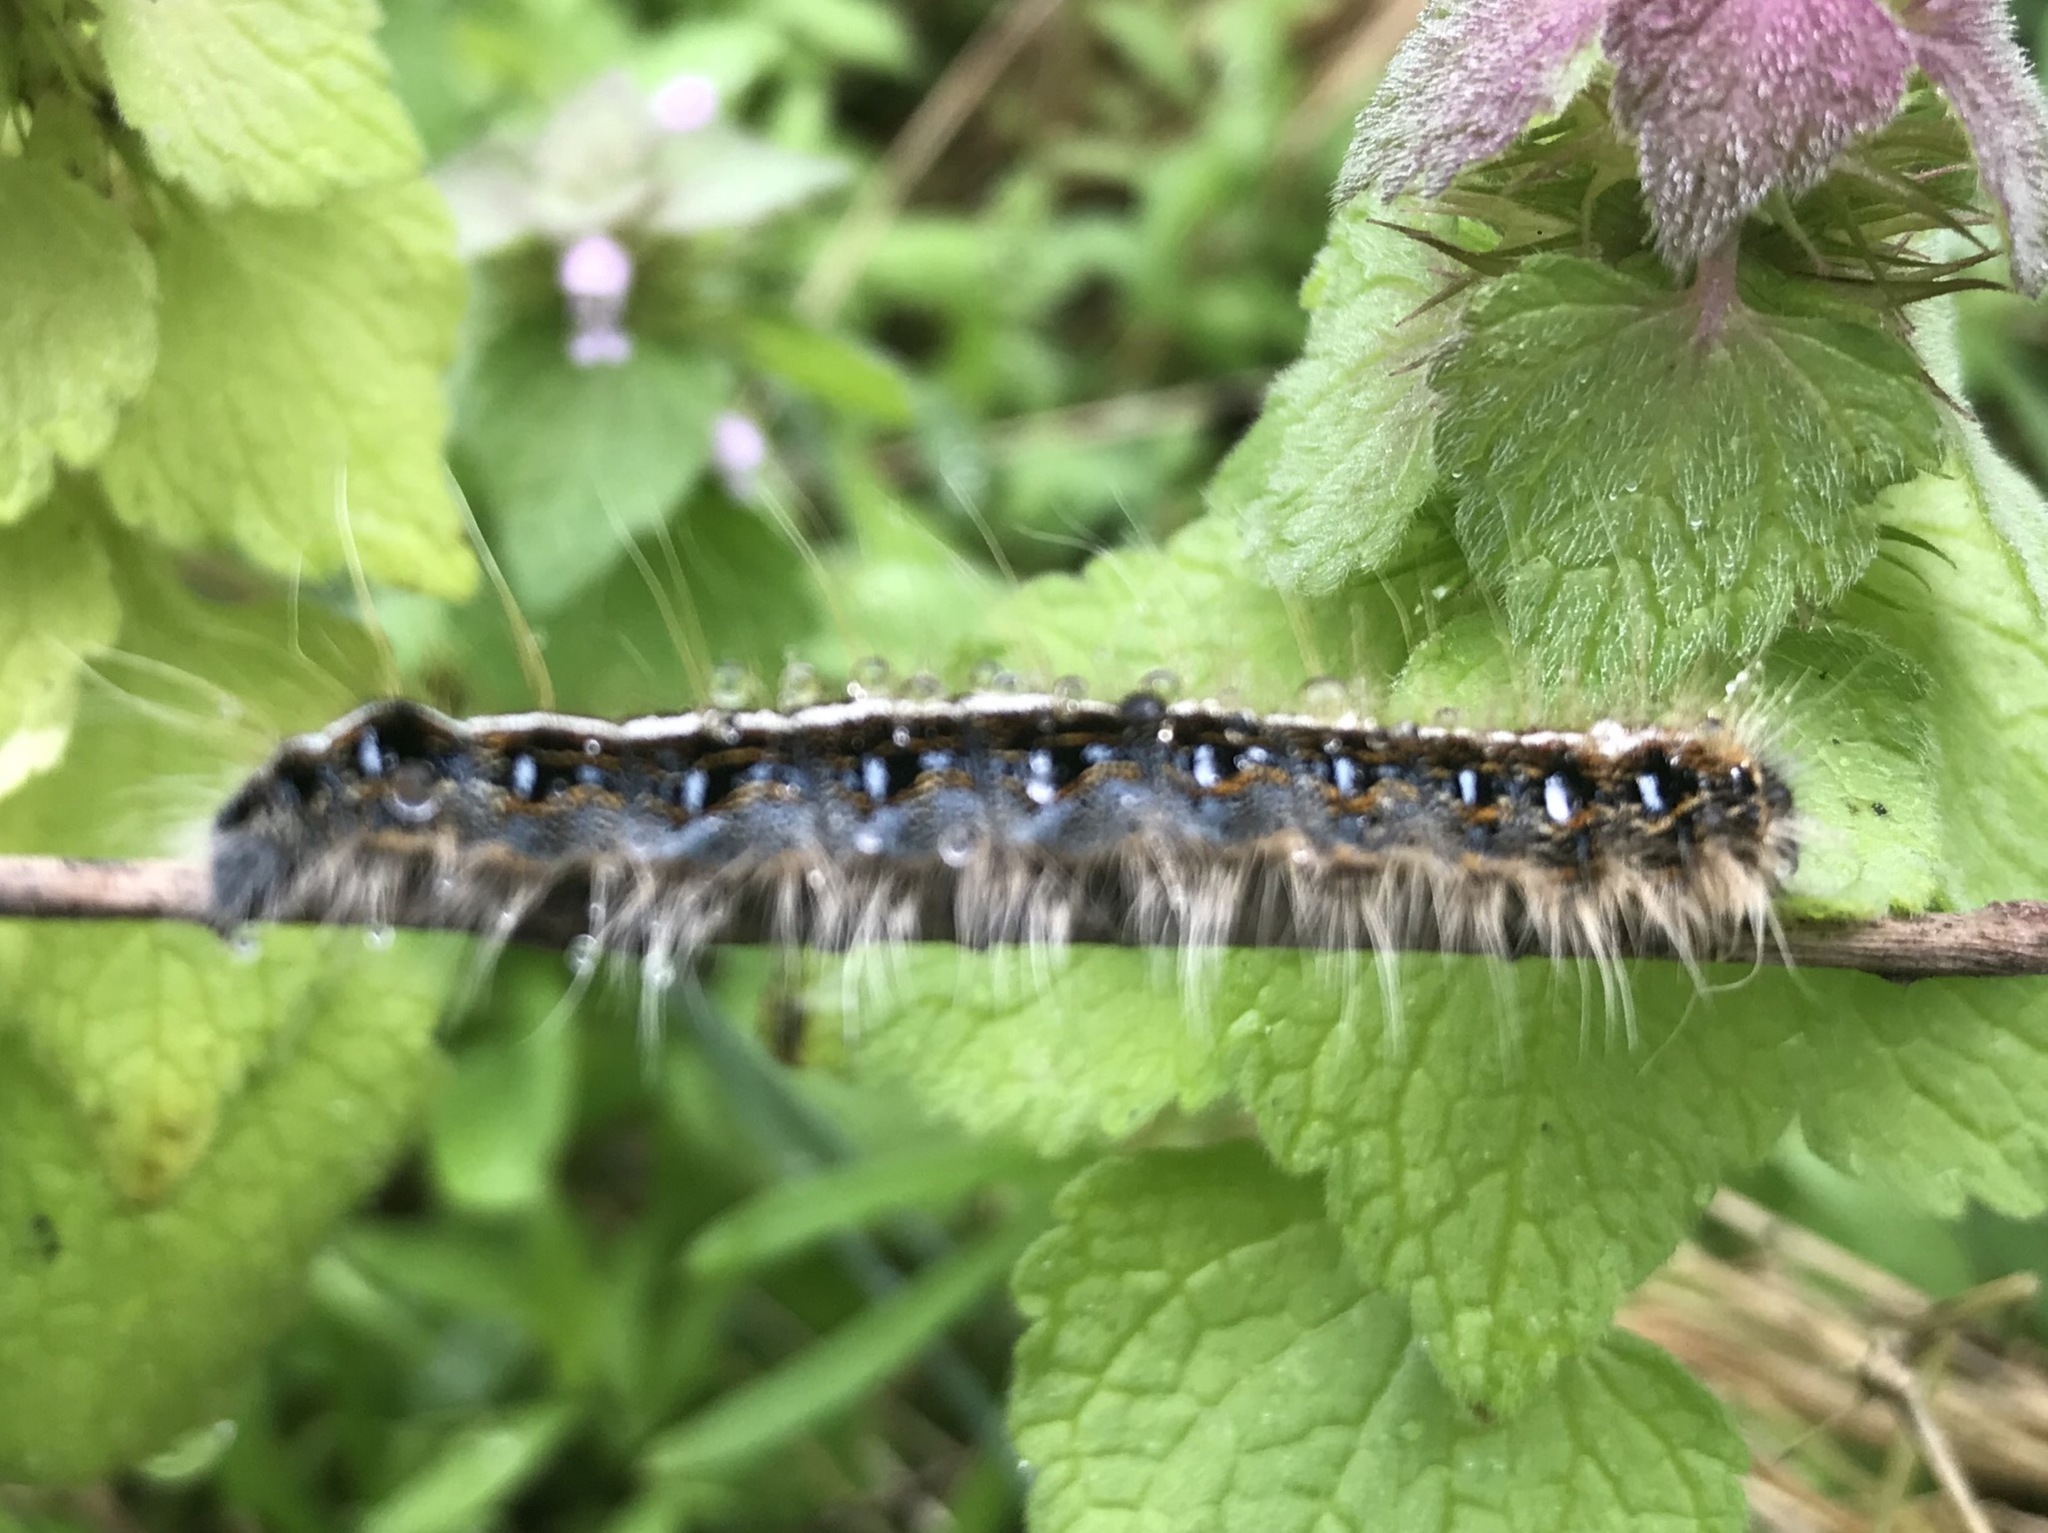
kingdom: Animalia
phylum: Arthropoda
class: Insecta
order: Lepidoptera
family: Lasiocampidae
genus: Malacosoma
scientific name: Malacosoma americana
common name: Eastern tent caterpillar moth
